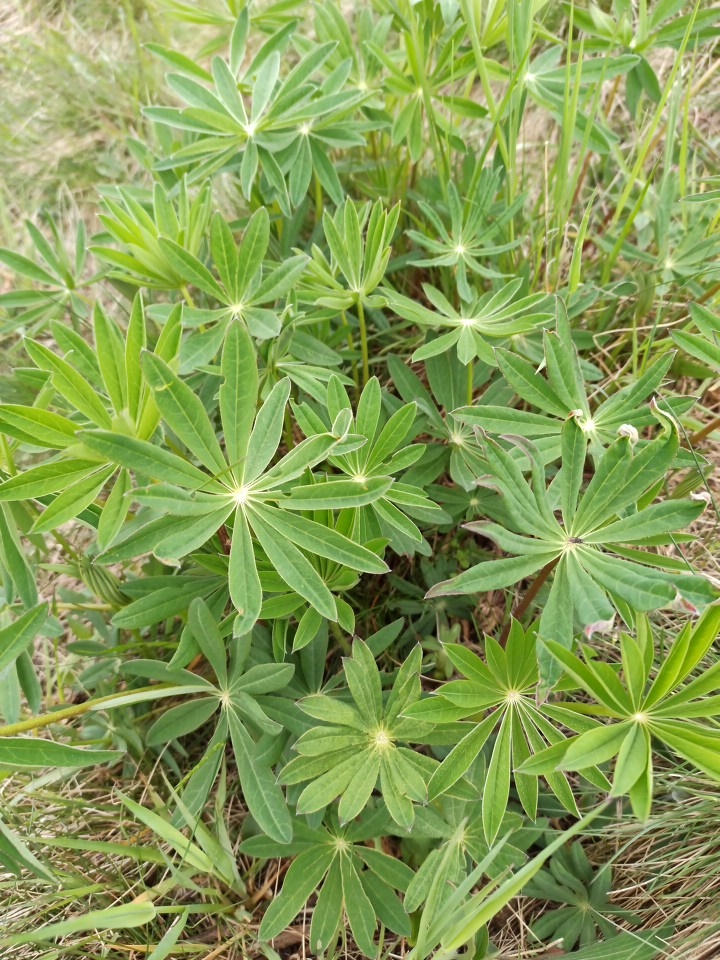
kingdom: Plantae
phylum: Tracheophyta
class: Magnoliopsida
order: Fabales
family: Fabaceae
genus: Lupinus
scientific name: Lupinus polyphyllus
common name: Garden lupin
